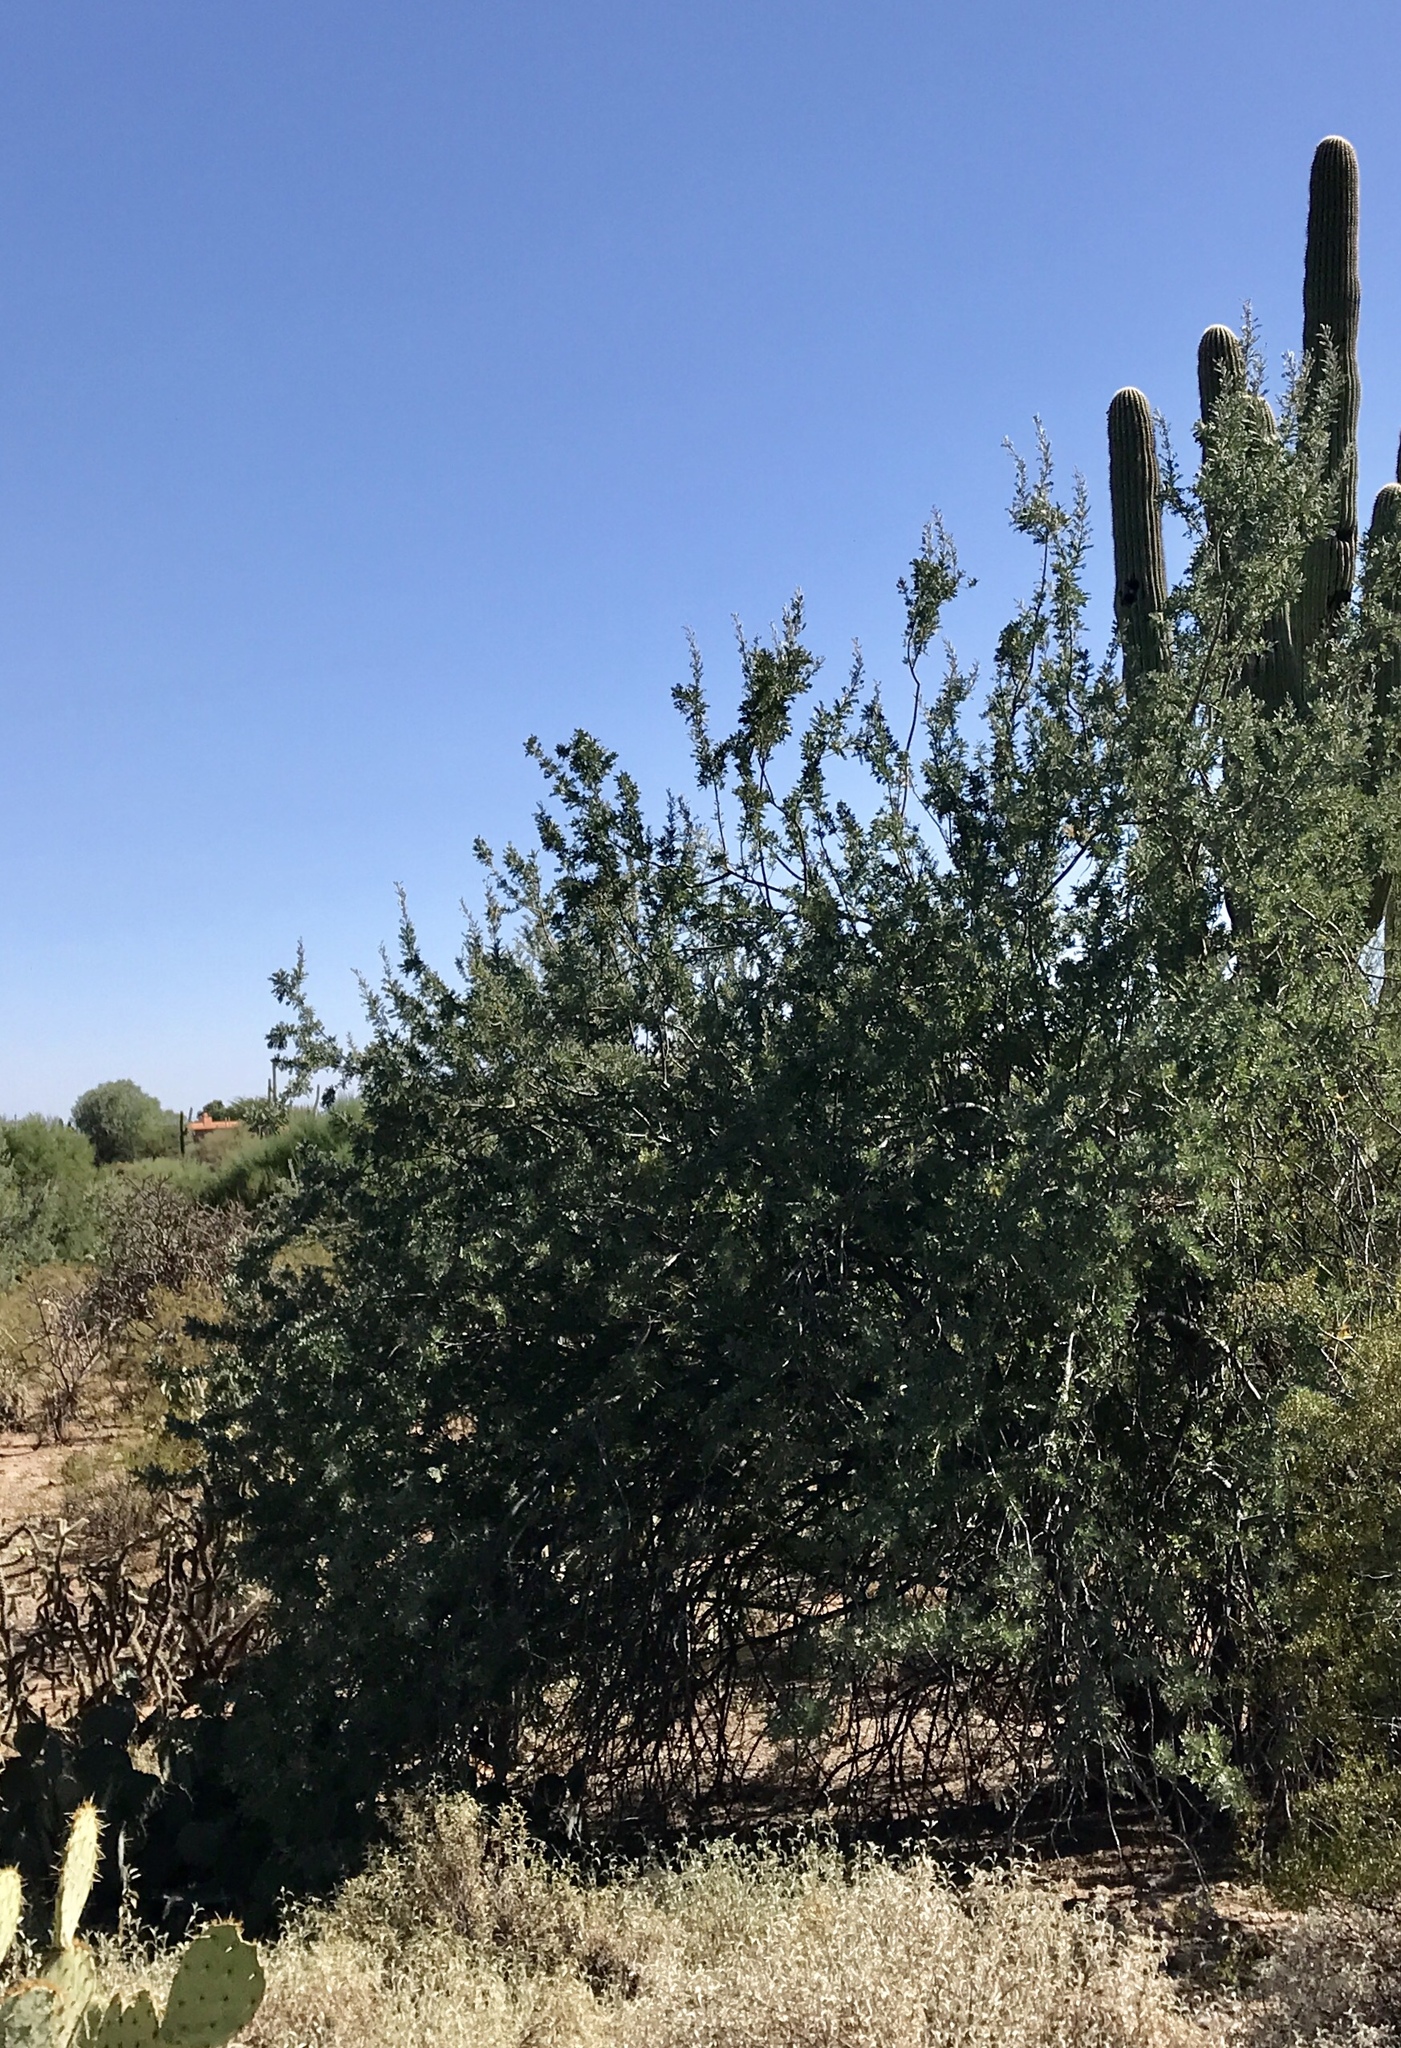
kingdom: Plantae
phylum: Tracheophyta
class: Magnoliopsida
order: Fabales
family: Fabaceae
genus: Olneya
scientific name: Olneya tesota
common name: Desert ironwood
